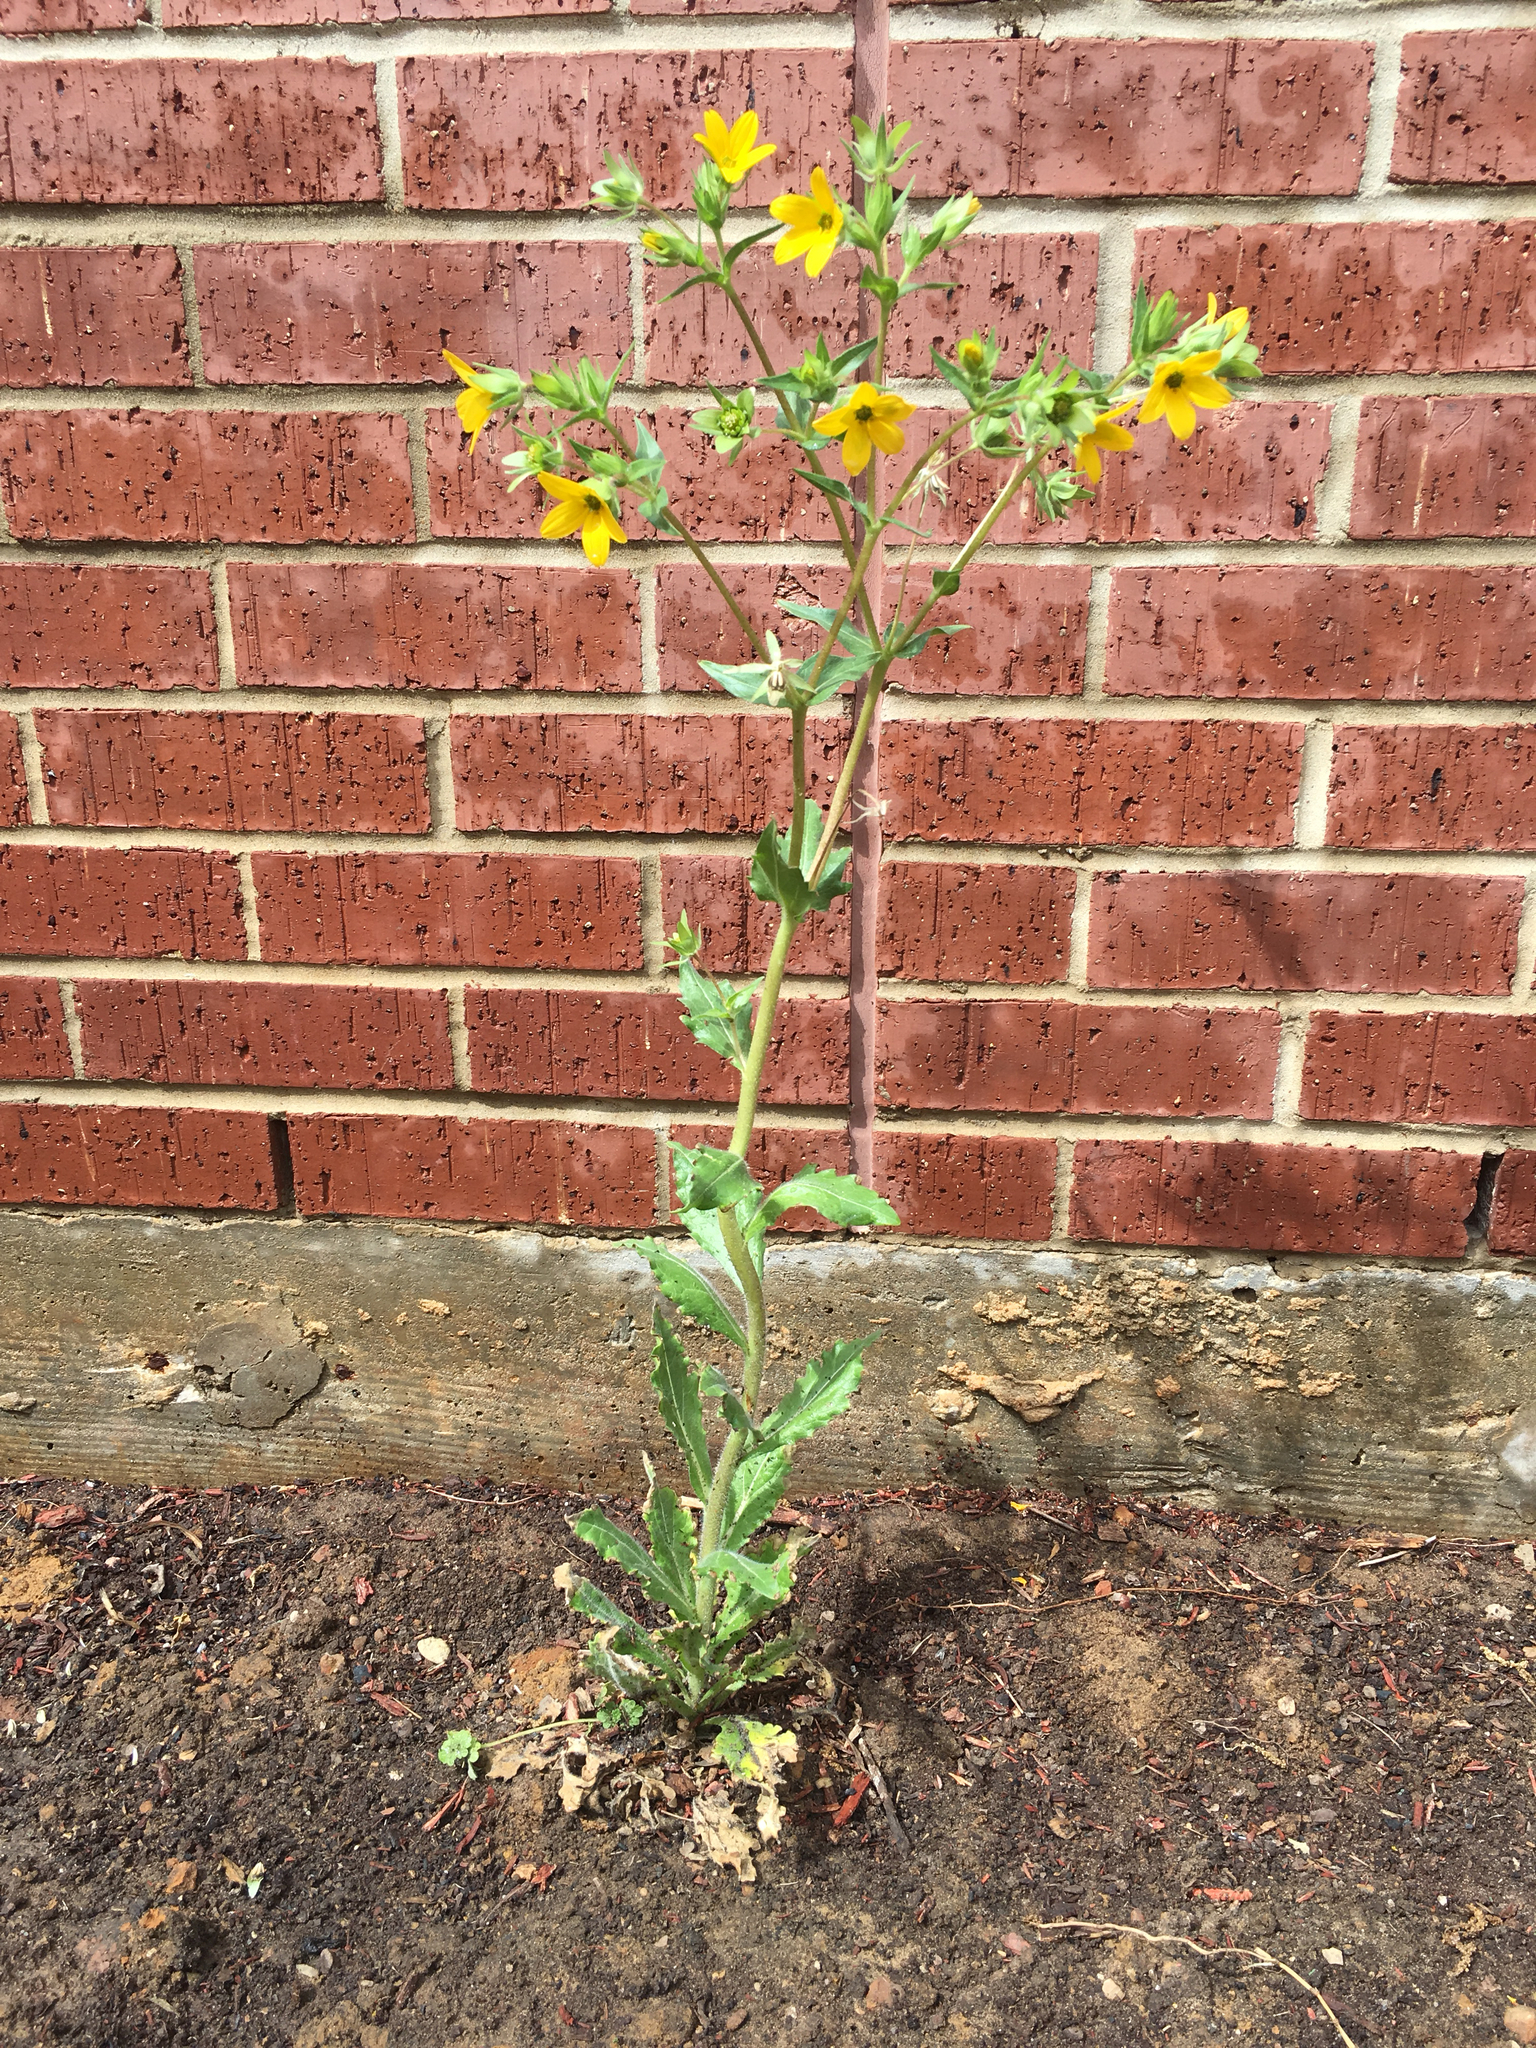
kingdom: Plantae
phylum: Tracheophyta
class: Magnoliopsida
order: Asterales
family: Asteraceae
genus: Lindheimera
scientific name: Lindheimera texana
